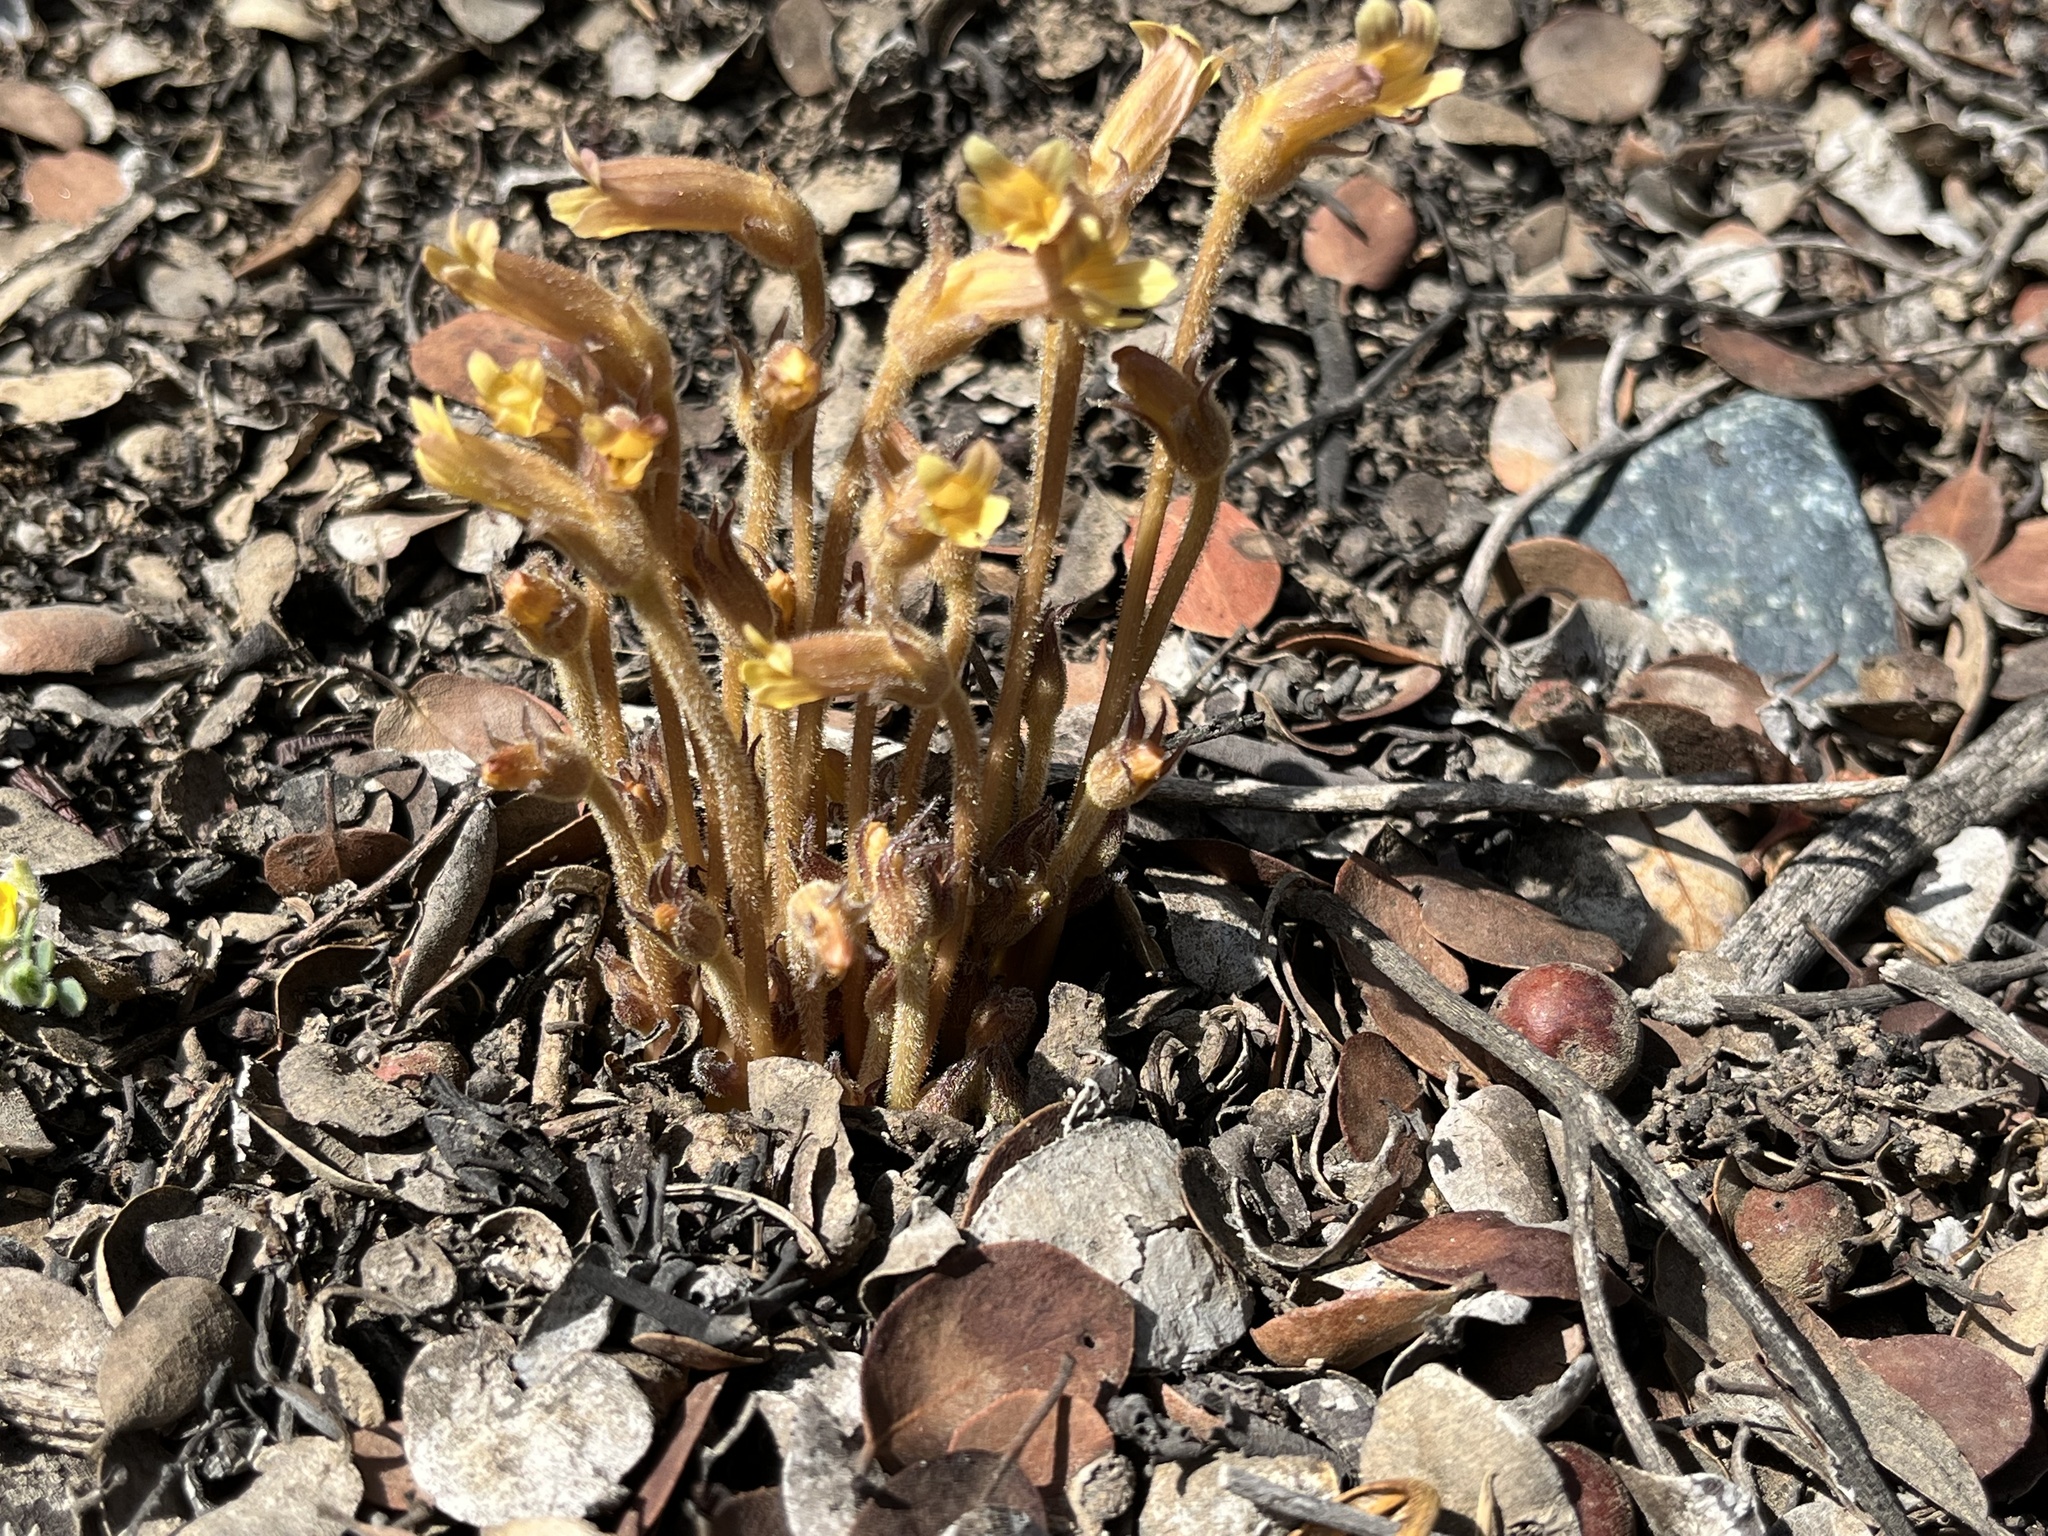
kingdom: Plantae
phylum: Tracheophyta
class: Magnoliopsida
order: Lamiales
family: Orobanchaceae
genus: Aphyllon
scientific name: Aphyllon franciscanum
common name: San francisco broomrape
